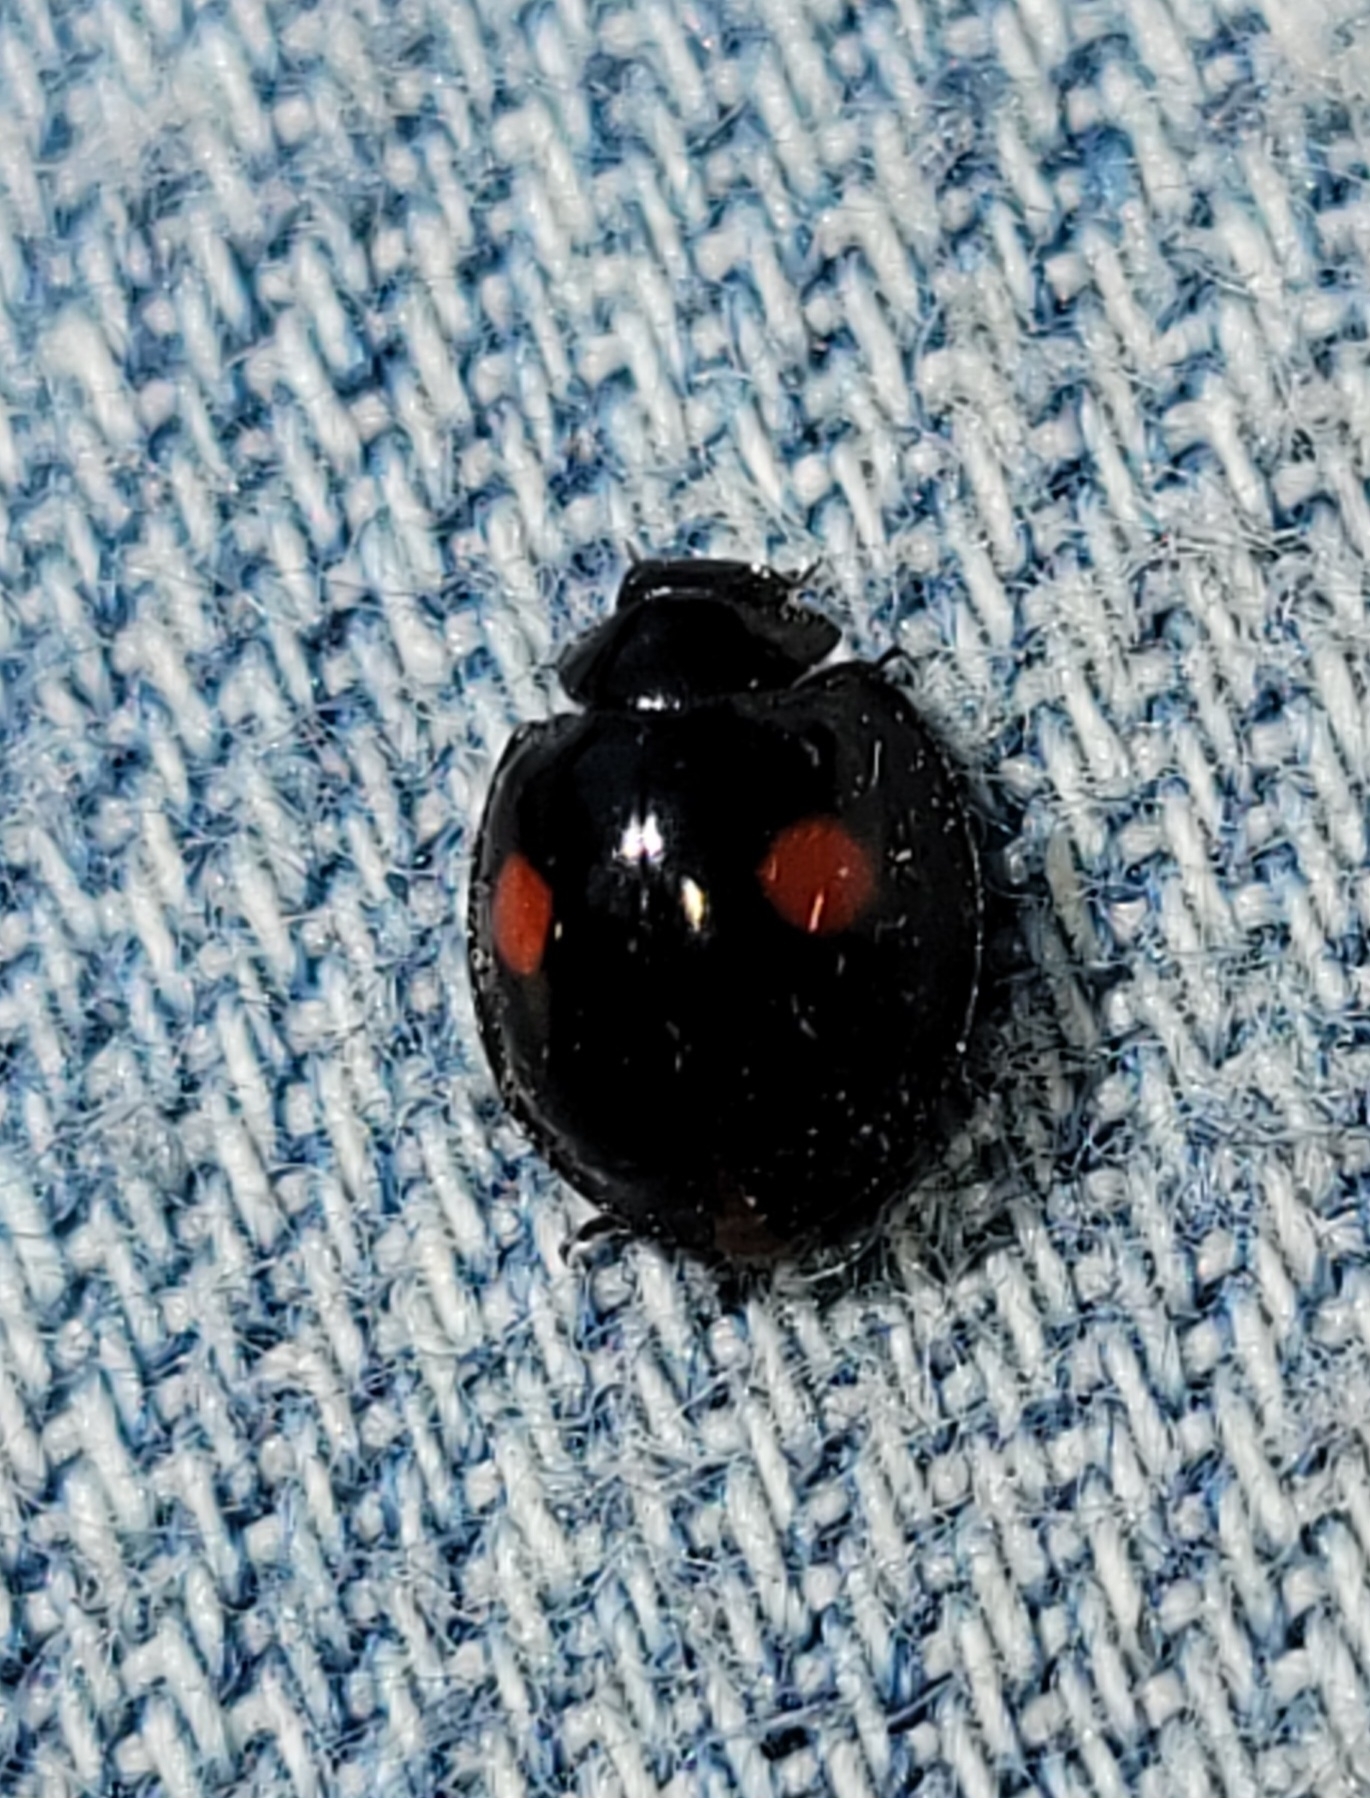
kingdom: Animalia
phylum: Arthropoda
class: Insecta
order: Coleoptera
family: Coccinellidae
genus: Chilocorus
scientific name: Chilocorus stigma
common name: Twicestabbed lady beetle
